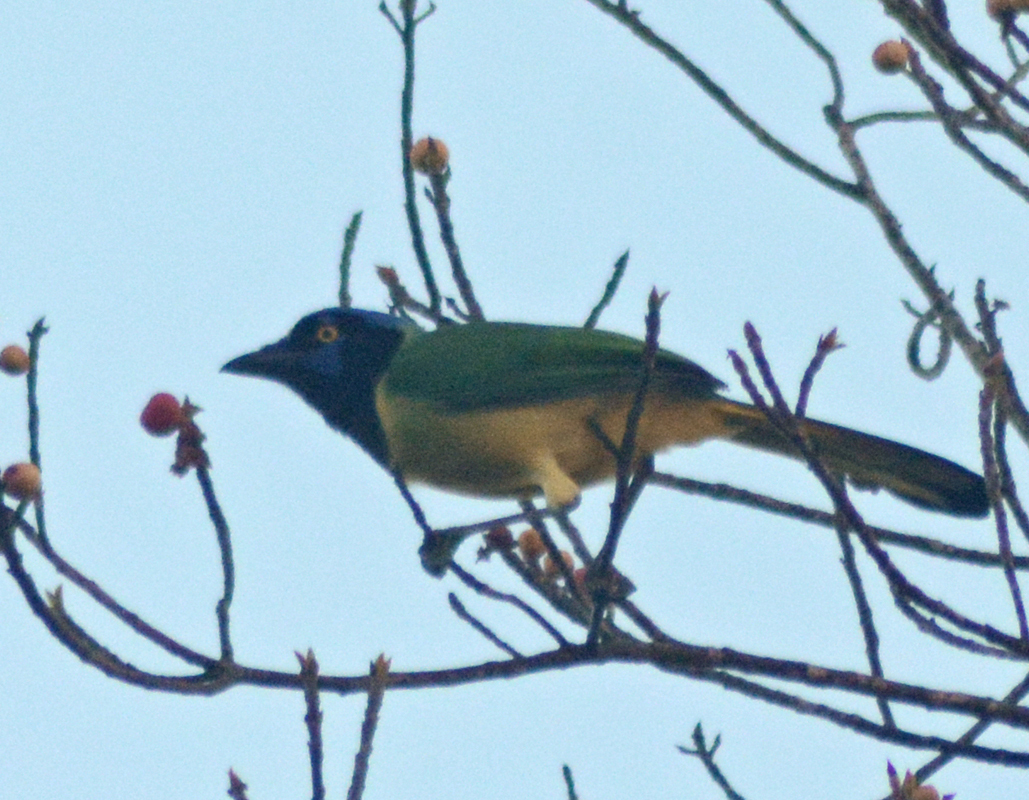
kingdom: Animalia
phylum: Chordata
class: Aves
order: Passeriformes
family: Corvidae
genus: Cyanocorax
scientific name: Cyanocorax yncas
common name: Green jay
